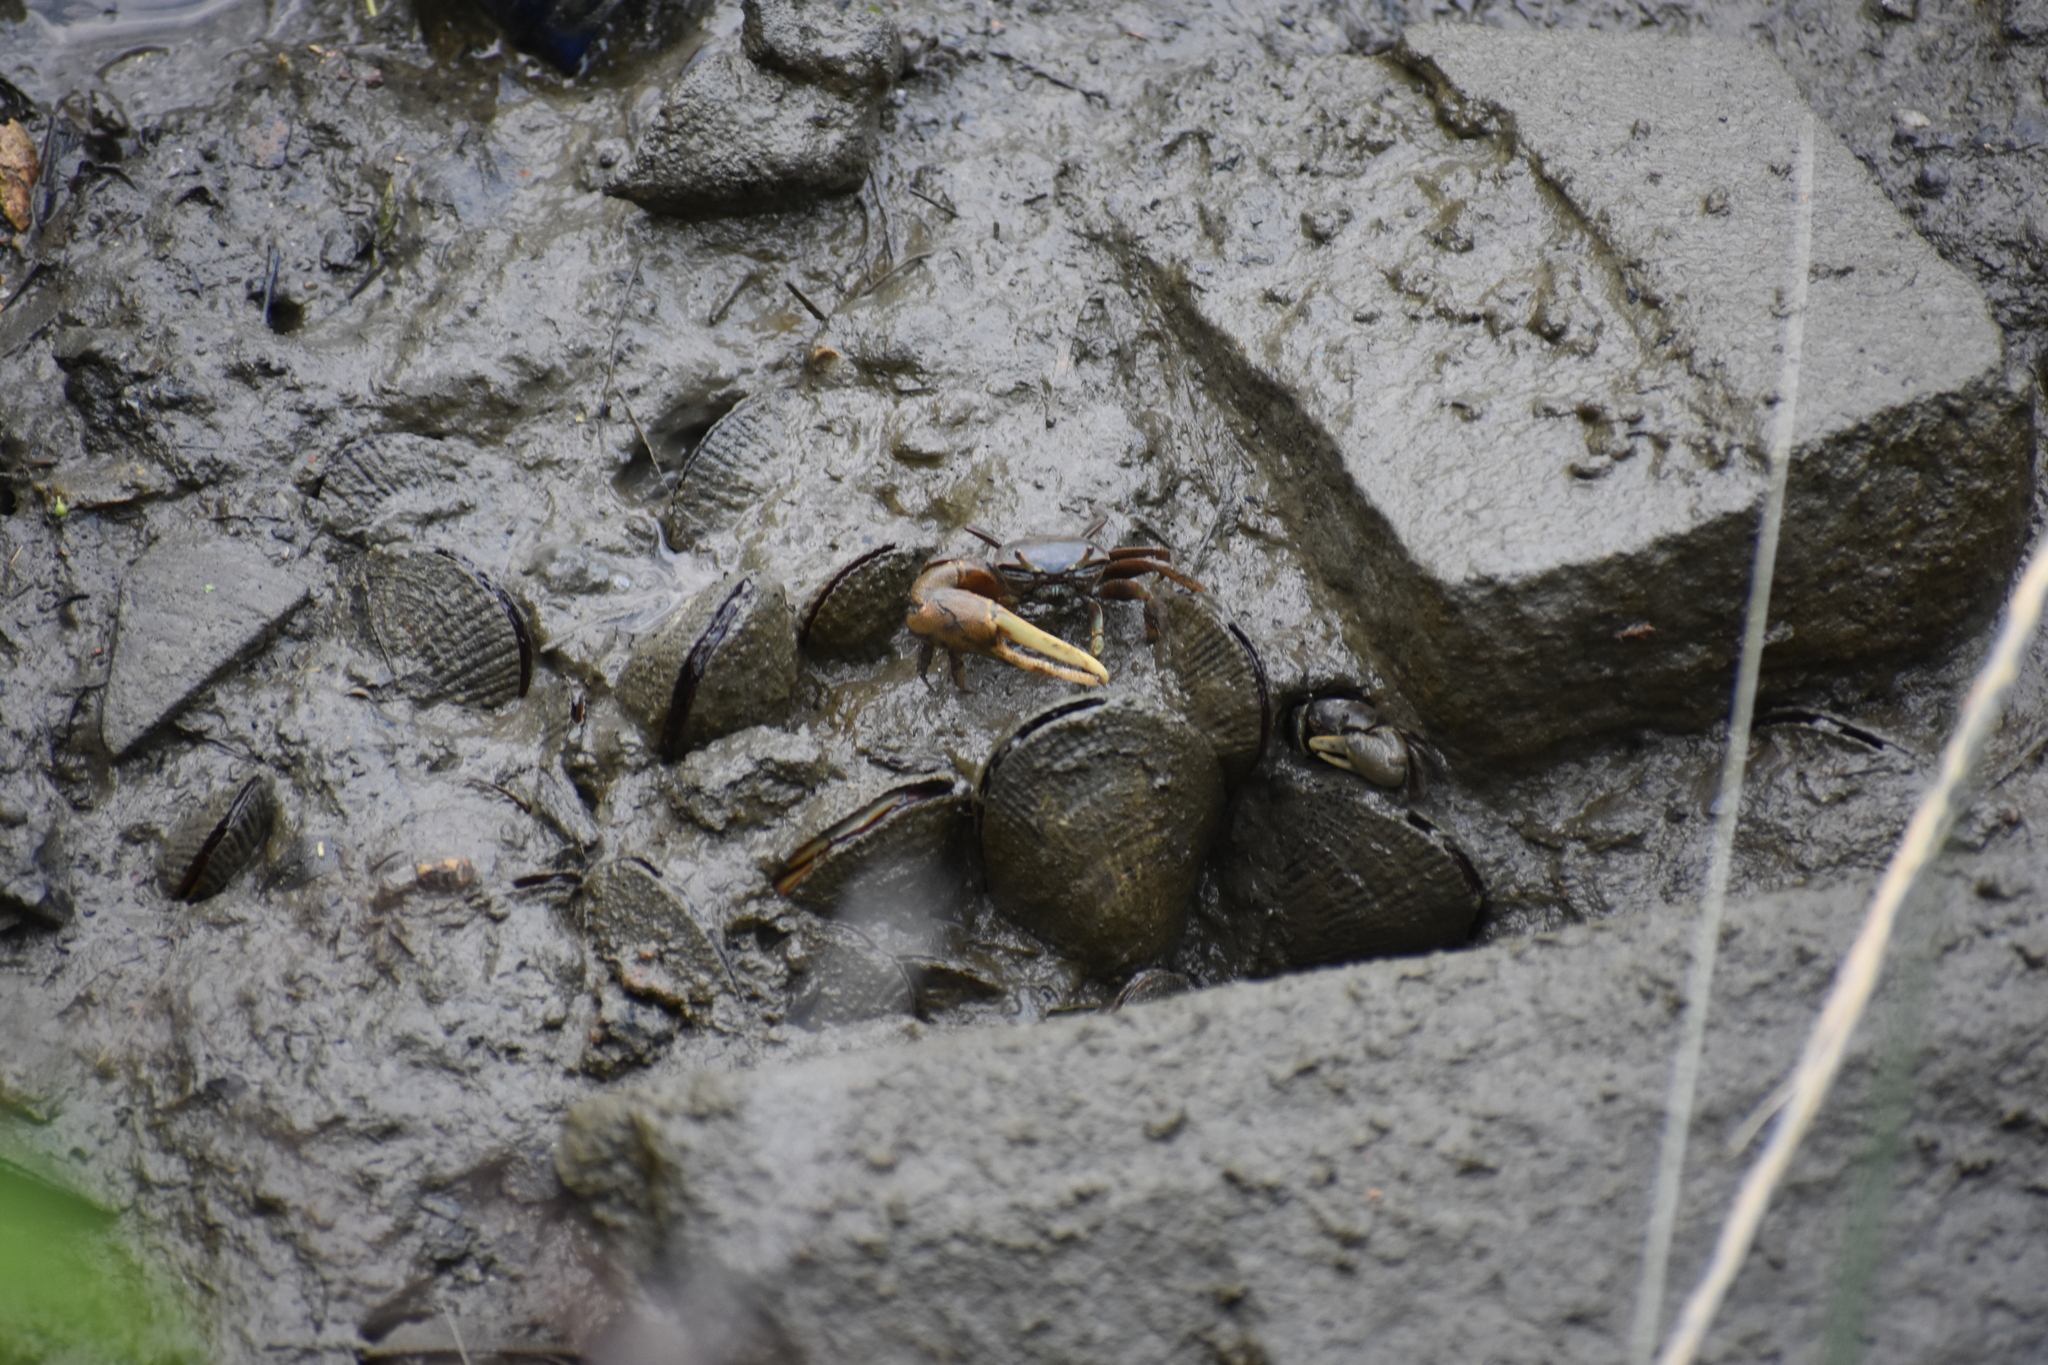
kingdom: Animalia
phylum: Arthropoda
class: Malacostraca
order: Decapoda
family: Ocypodidae
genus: Minuca
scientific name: Minuca pugnax
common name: Mud fiddler crab
